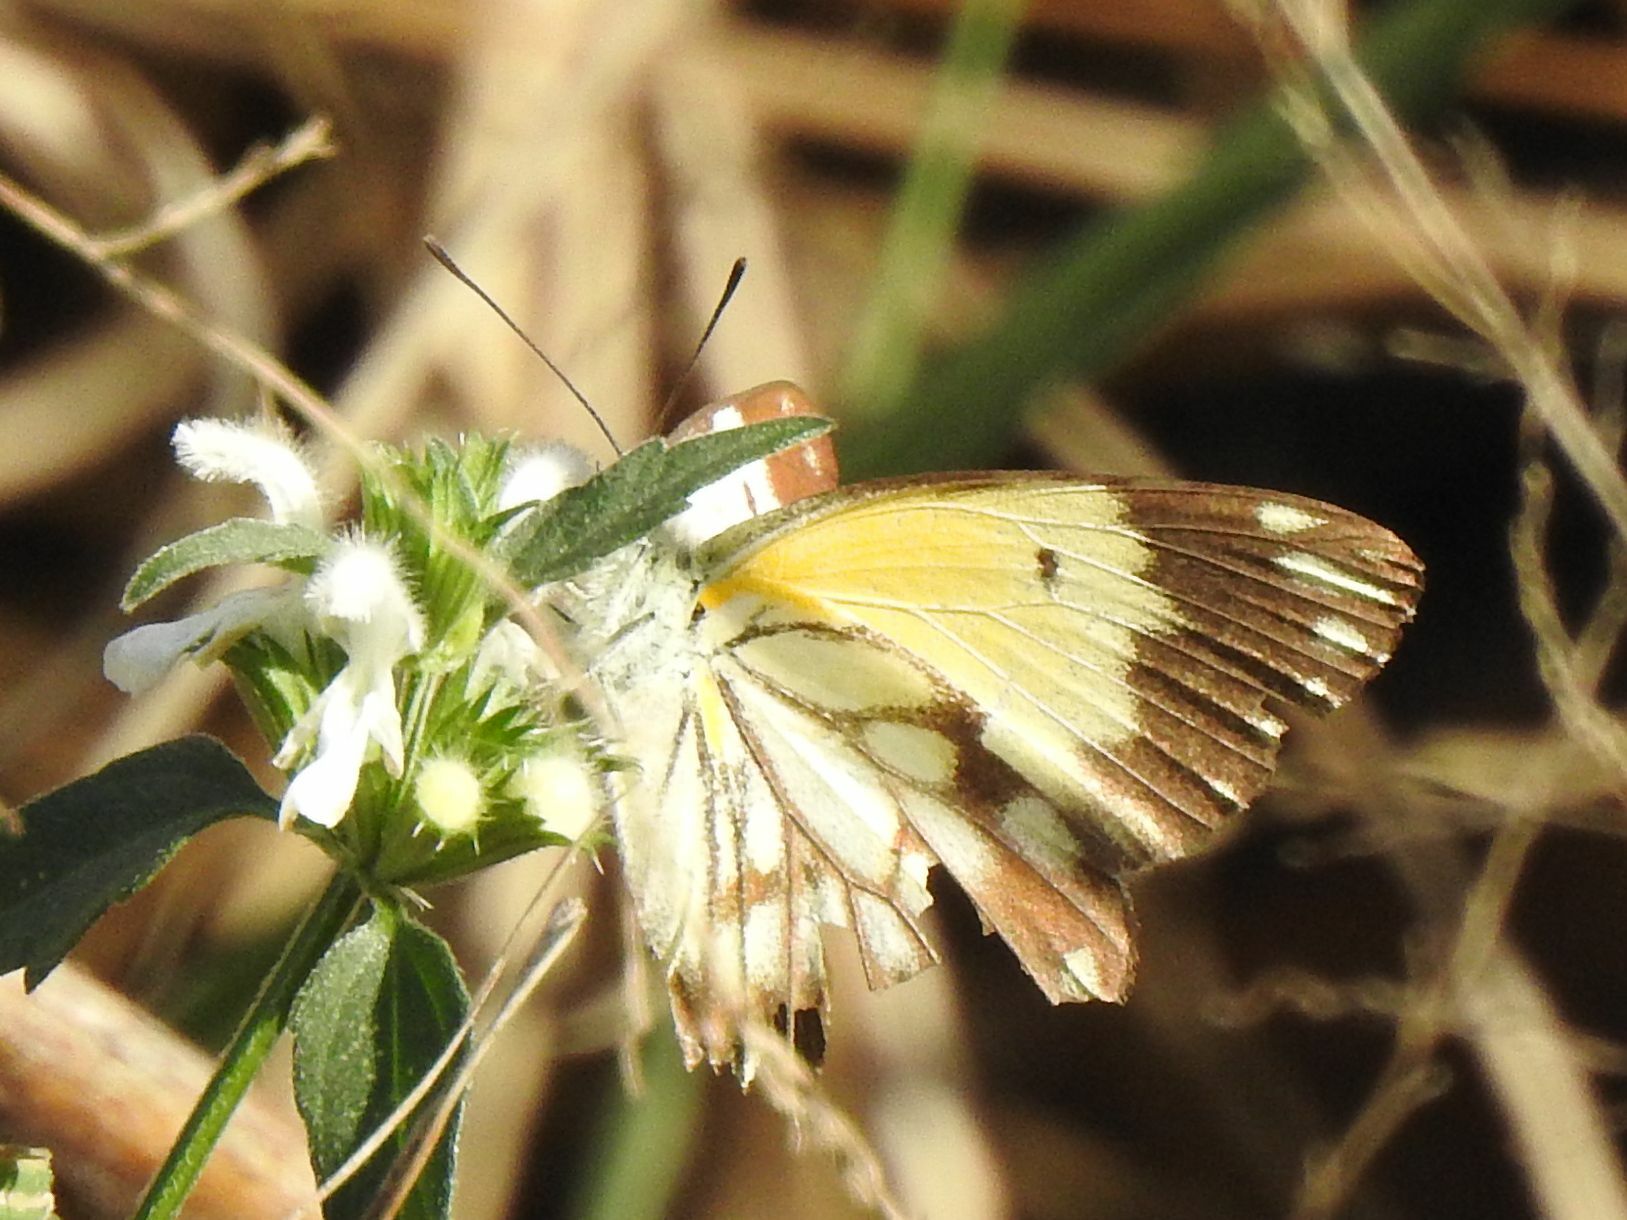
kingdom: Animalia
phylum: Arthropoda
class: Insecta
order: Lepidoptera
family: Pieridae
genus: Belenois
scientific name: Belenois creona
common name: African caper white
